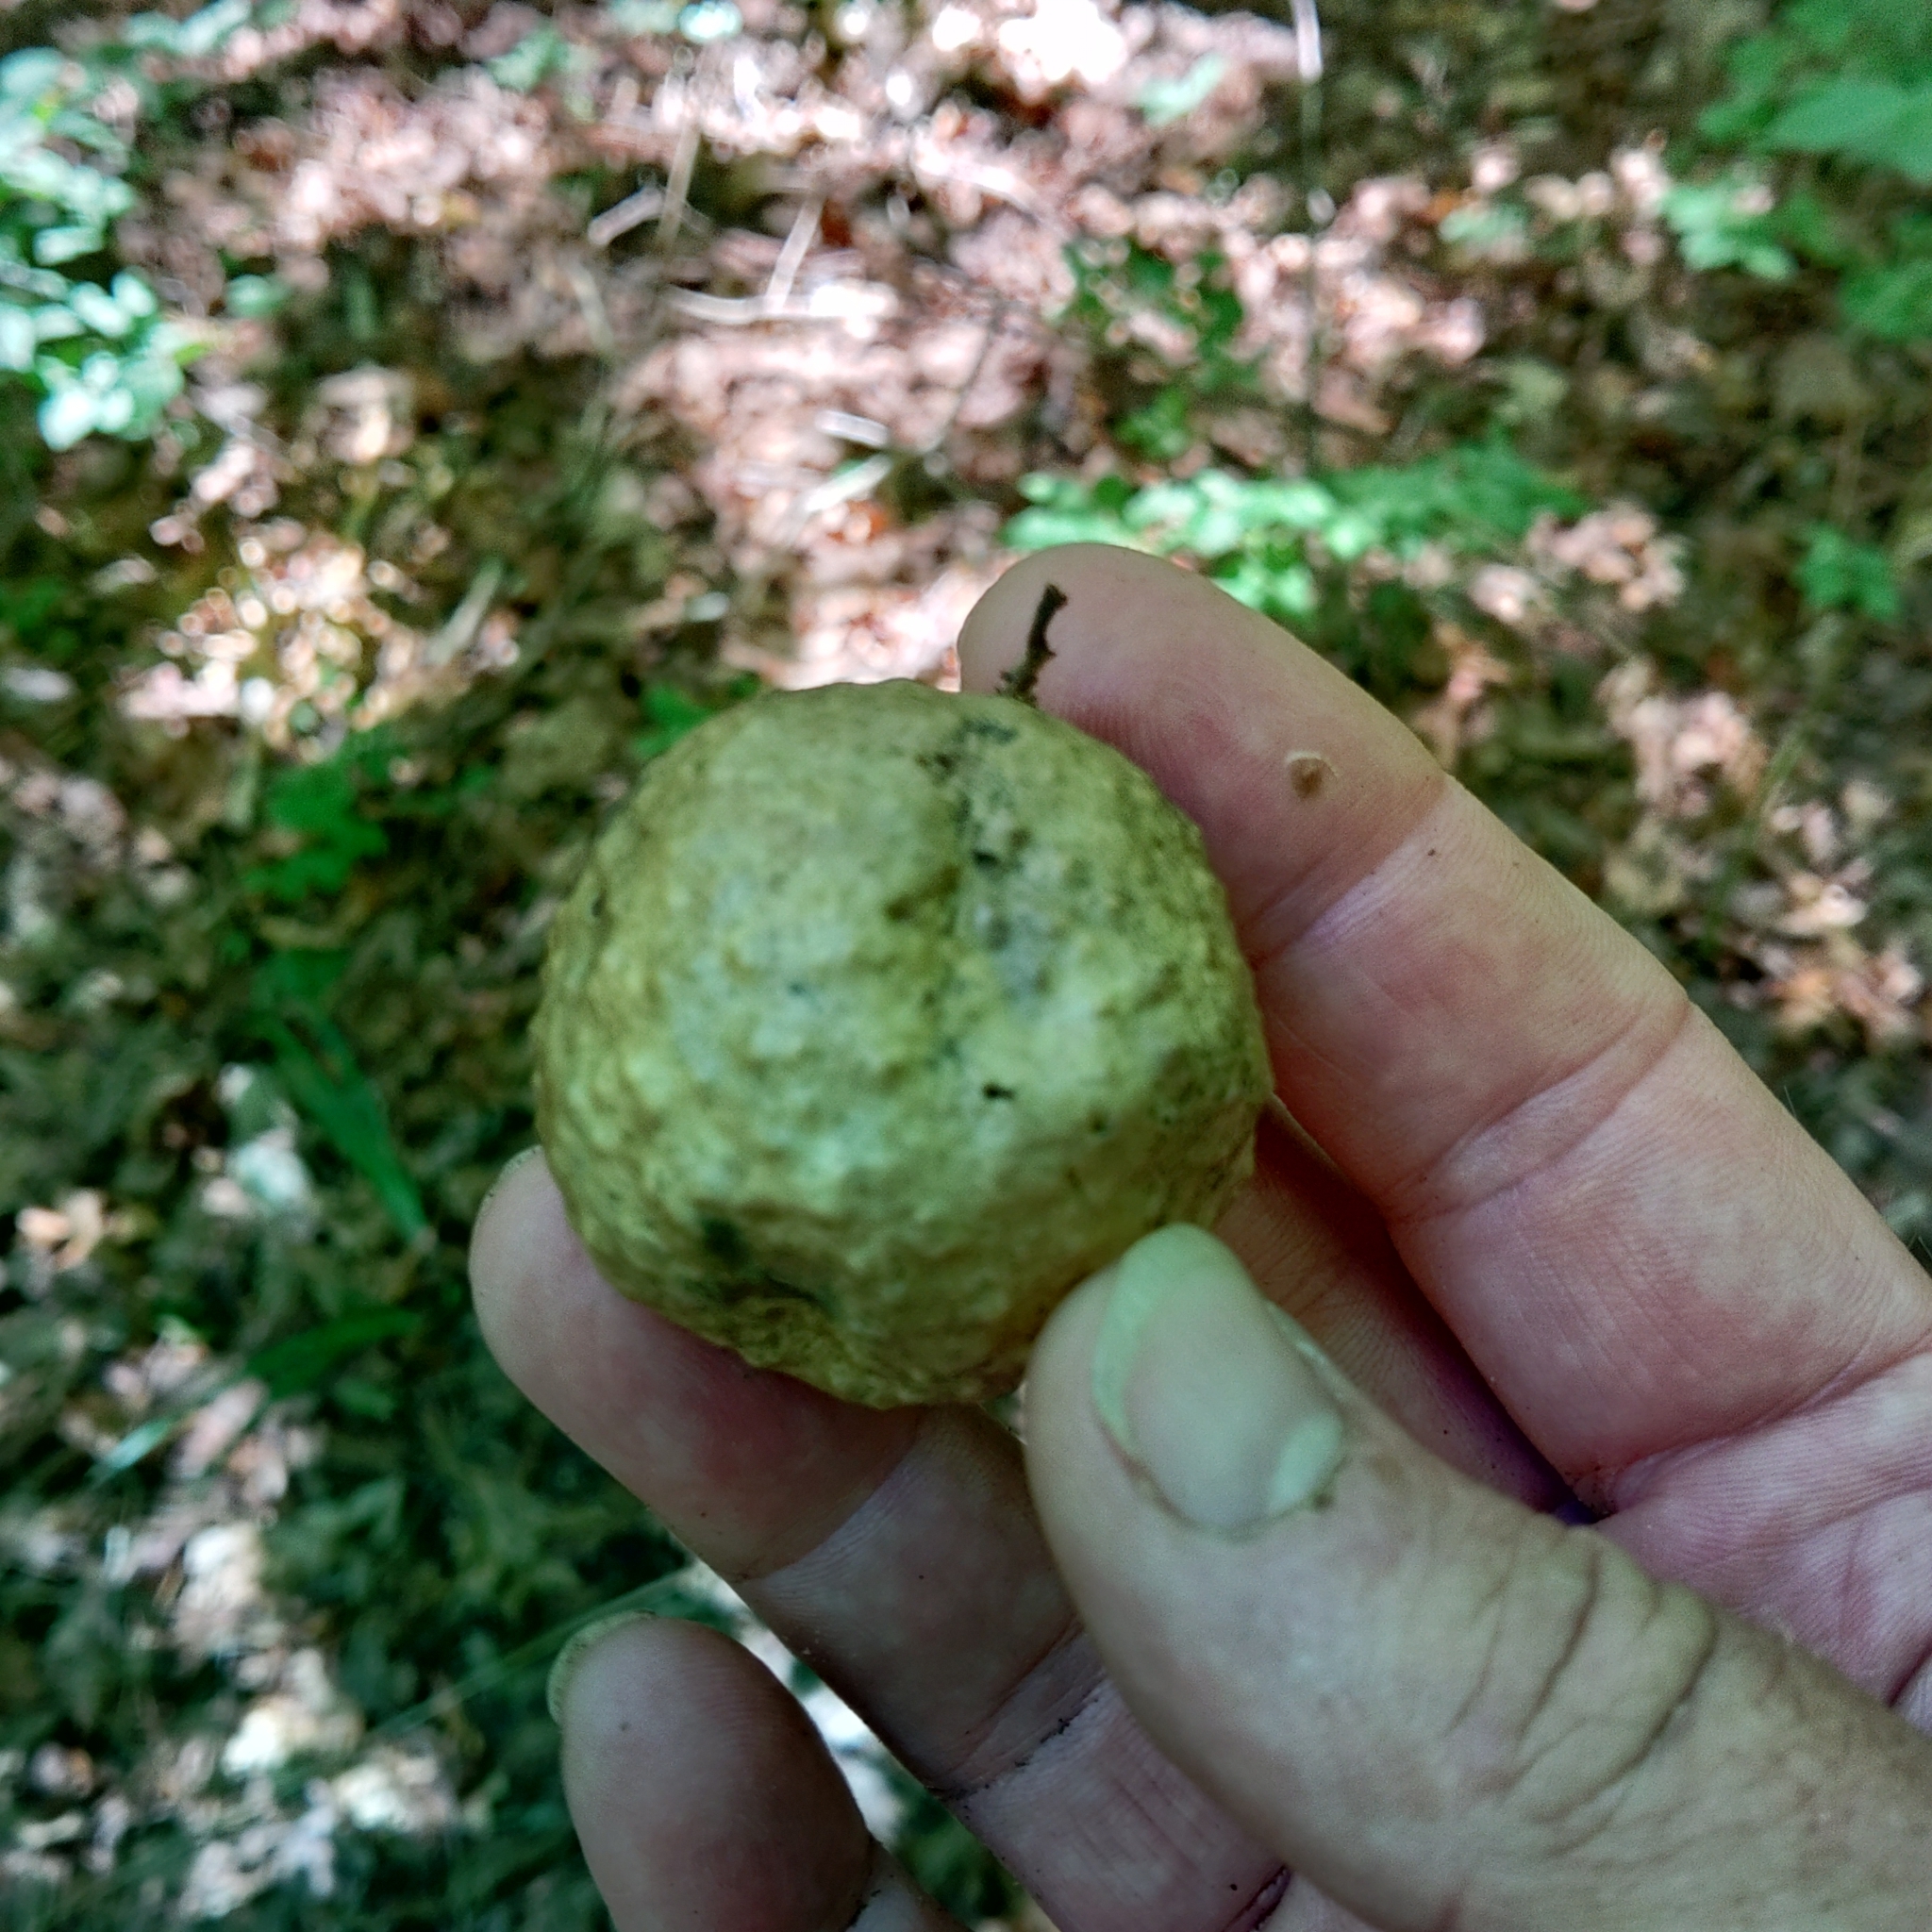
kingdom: Animalia
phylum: Arthropoda
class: Insecta
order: Hymenoptera
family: Cynipidae
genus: Amphibolips
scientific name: Amphibolips
